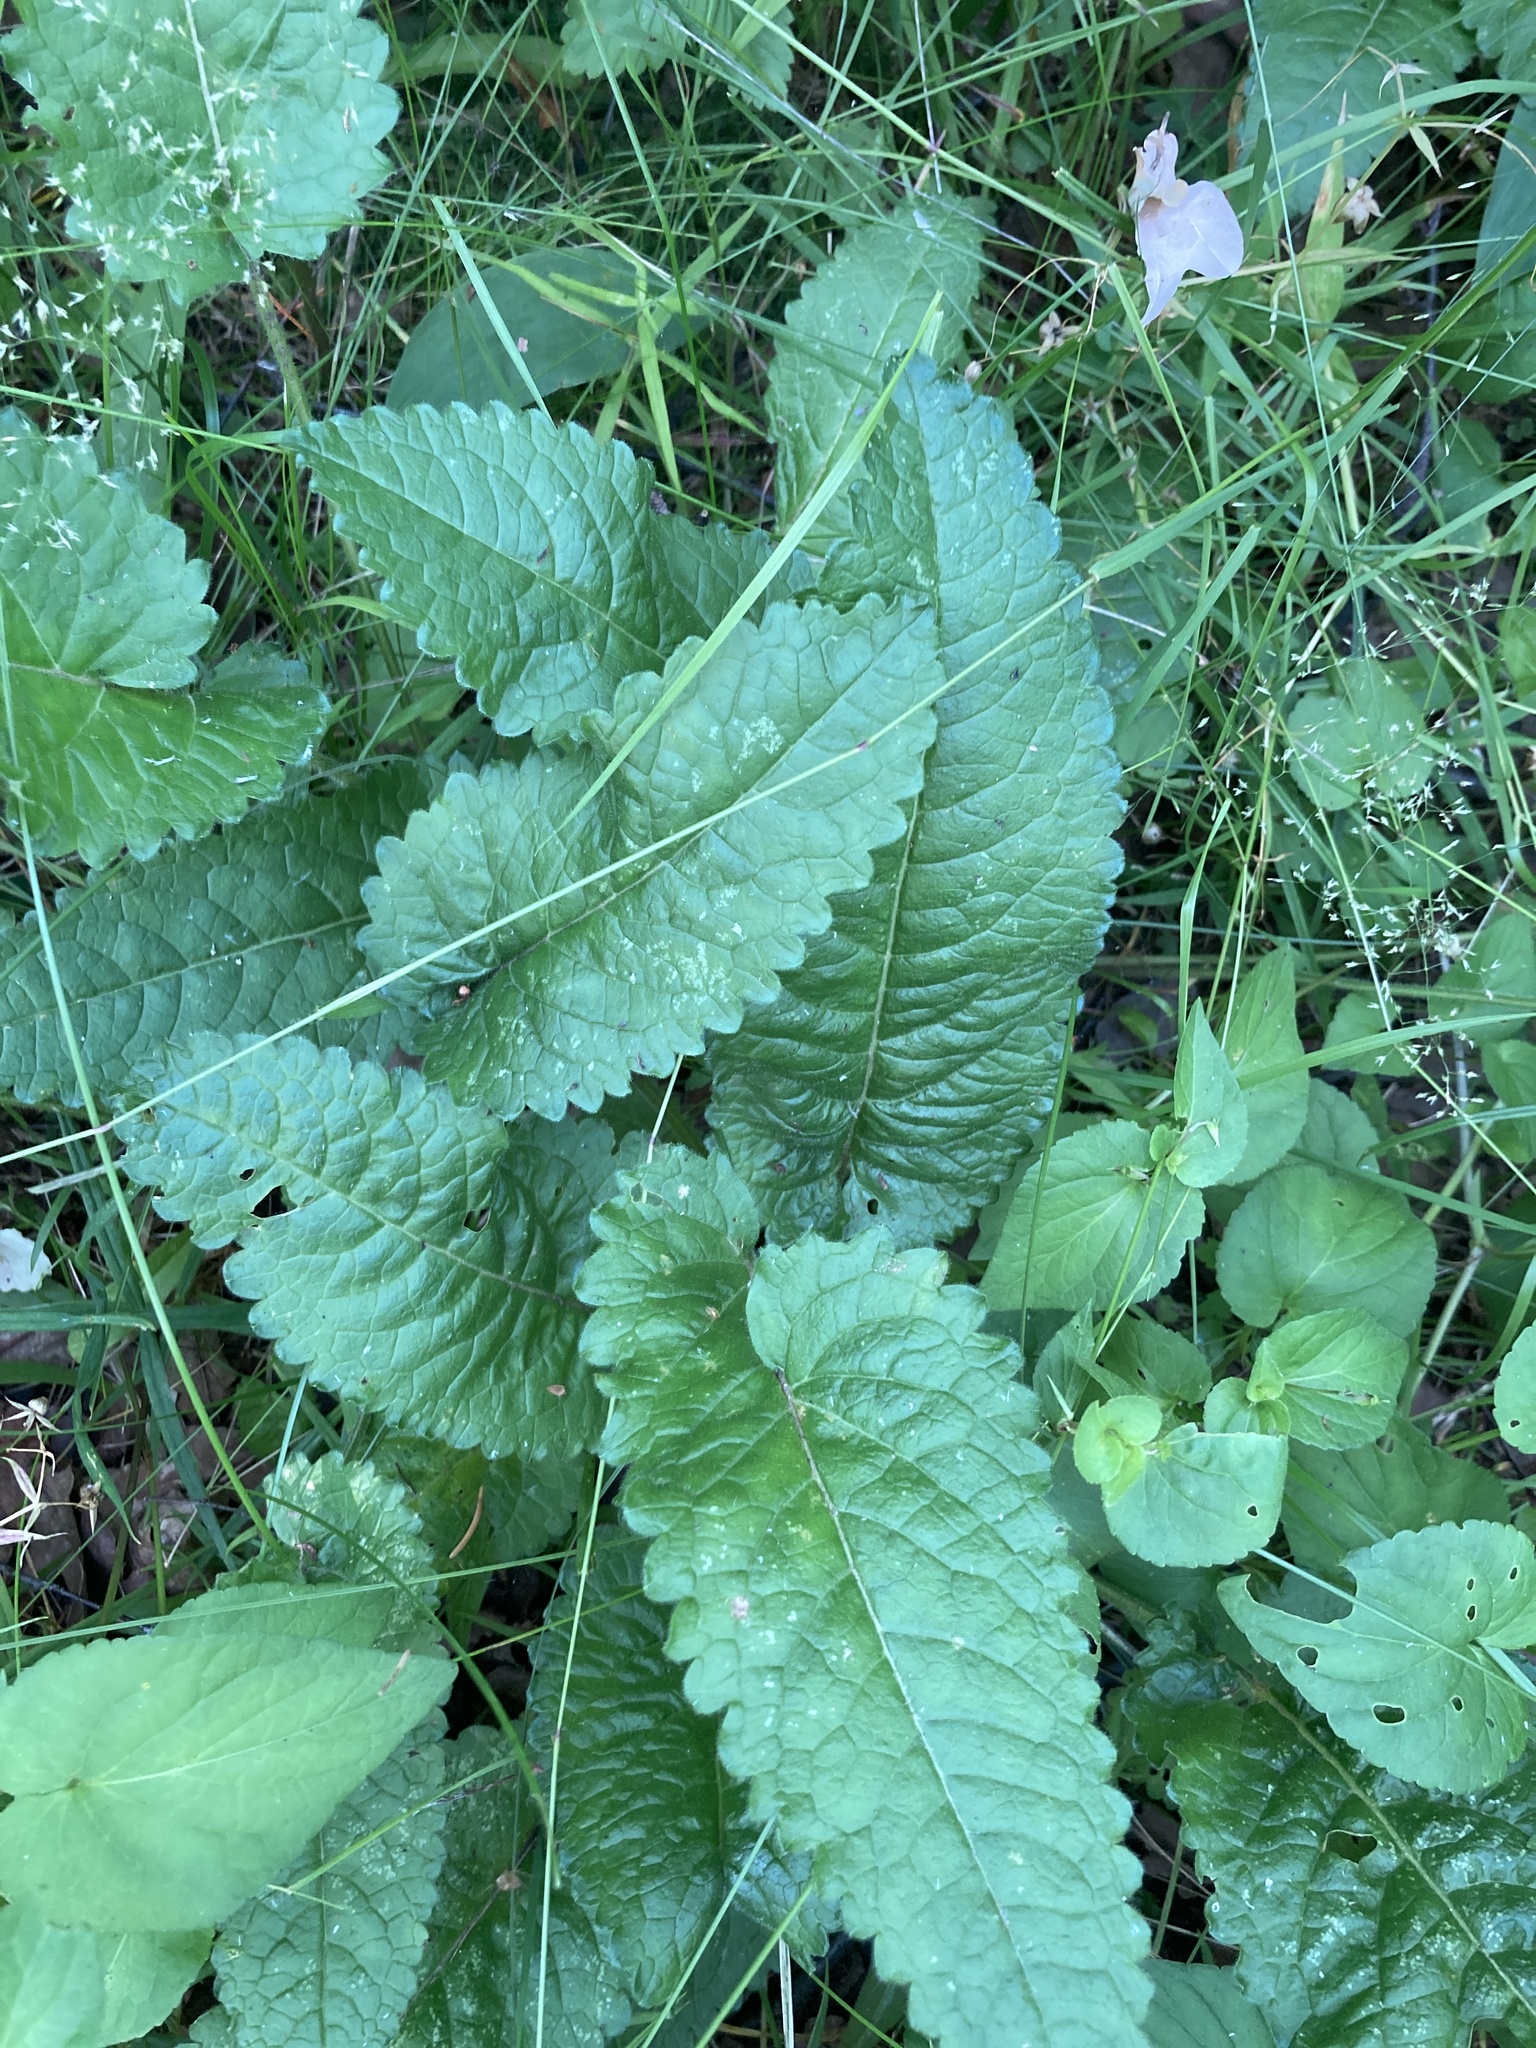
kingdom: Plantae
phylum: Tracheophyta
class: Magnoliopsida
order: Lamiales
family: Lamiaceae
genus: Betonica
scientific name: Betonica officinalis
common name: Bishop's-wort
